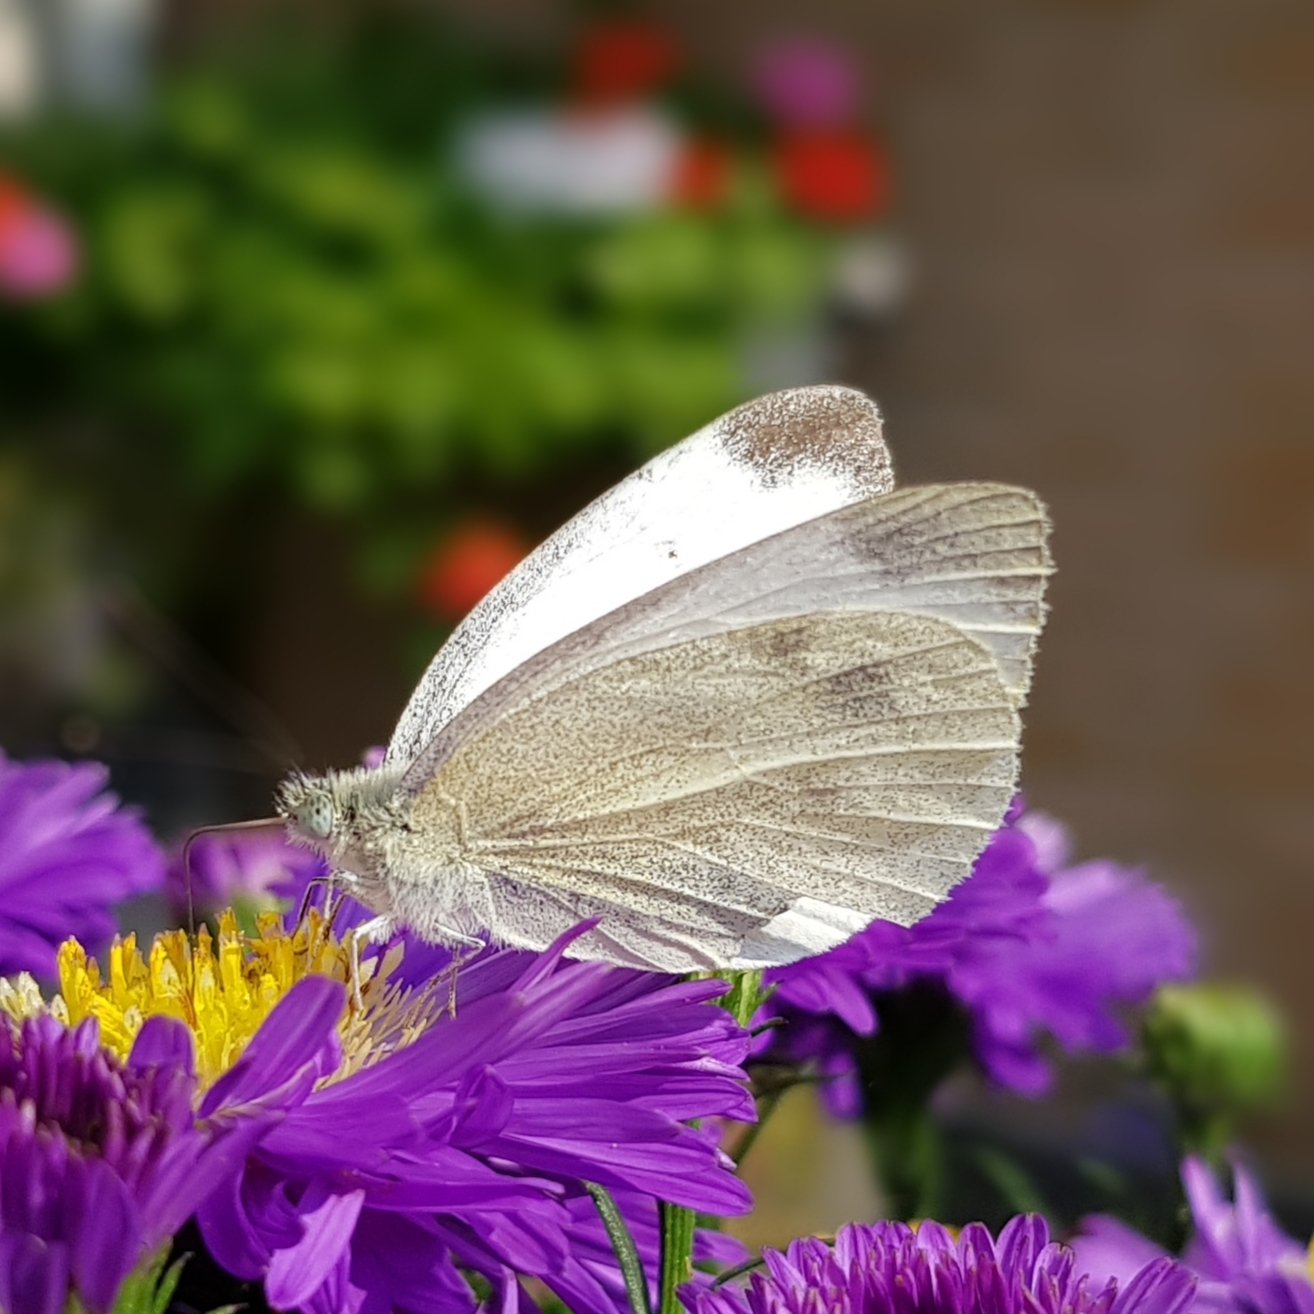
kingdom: Animalia
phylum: Arthropoda
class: Insecta
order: Lepidoptera
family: Pieridae
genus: Pieris
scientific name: Pieris mannii
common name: Southern small white
